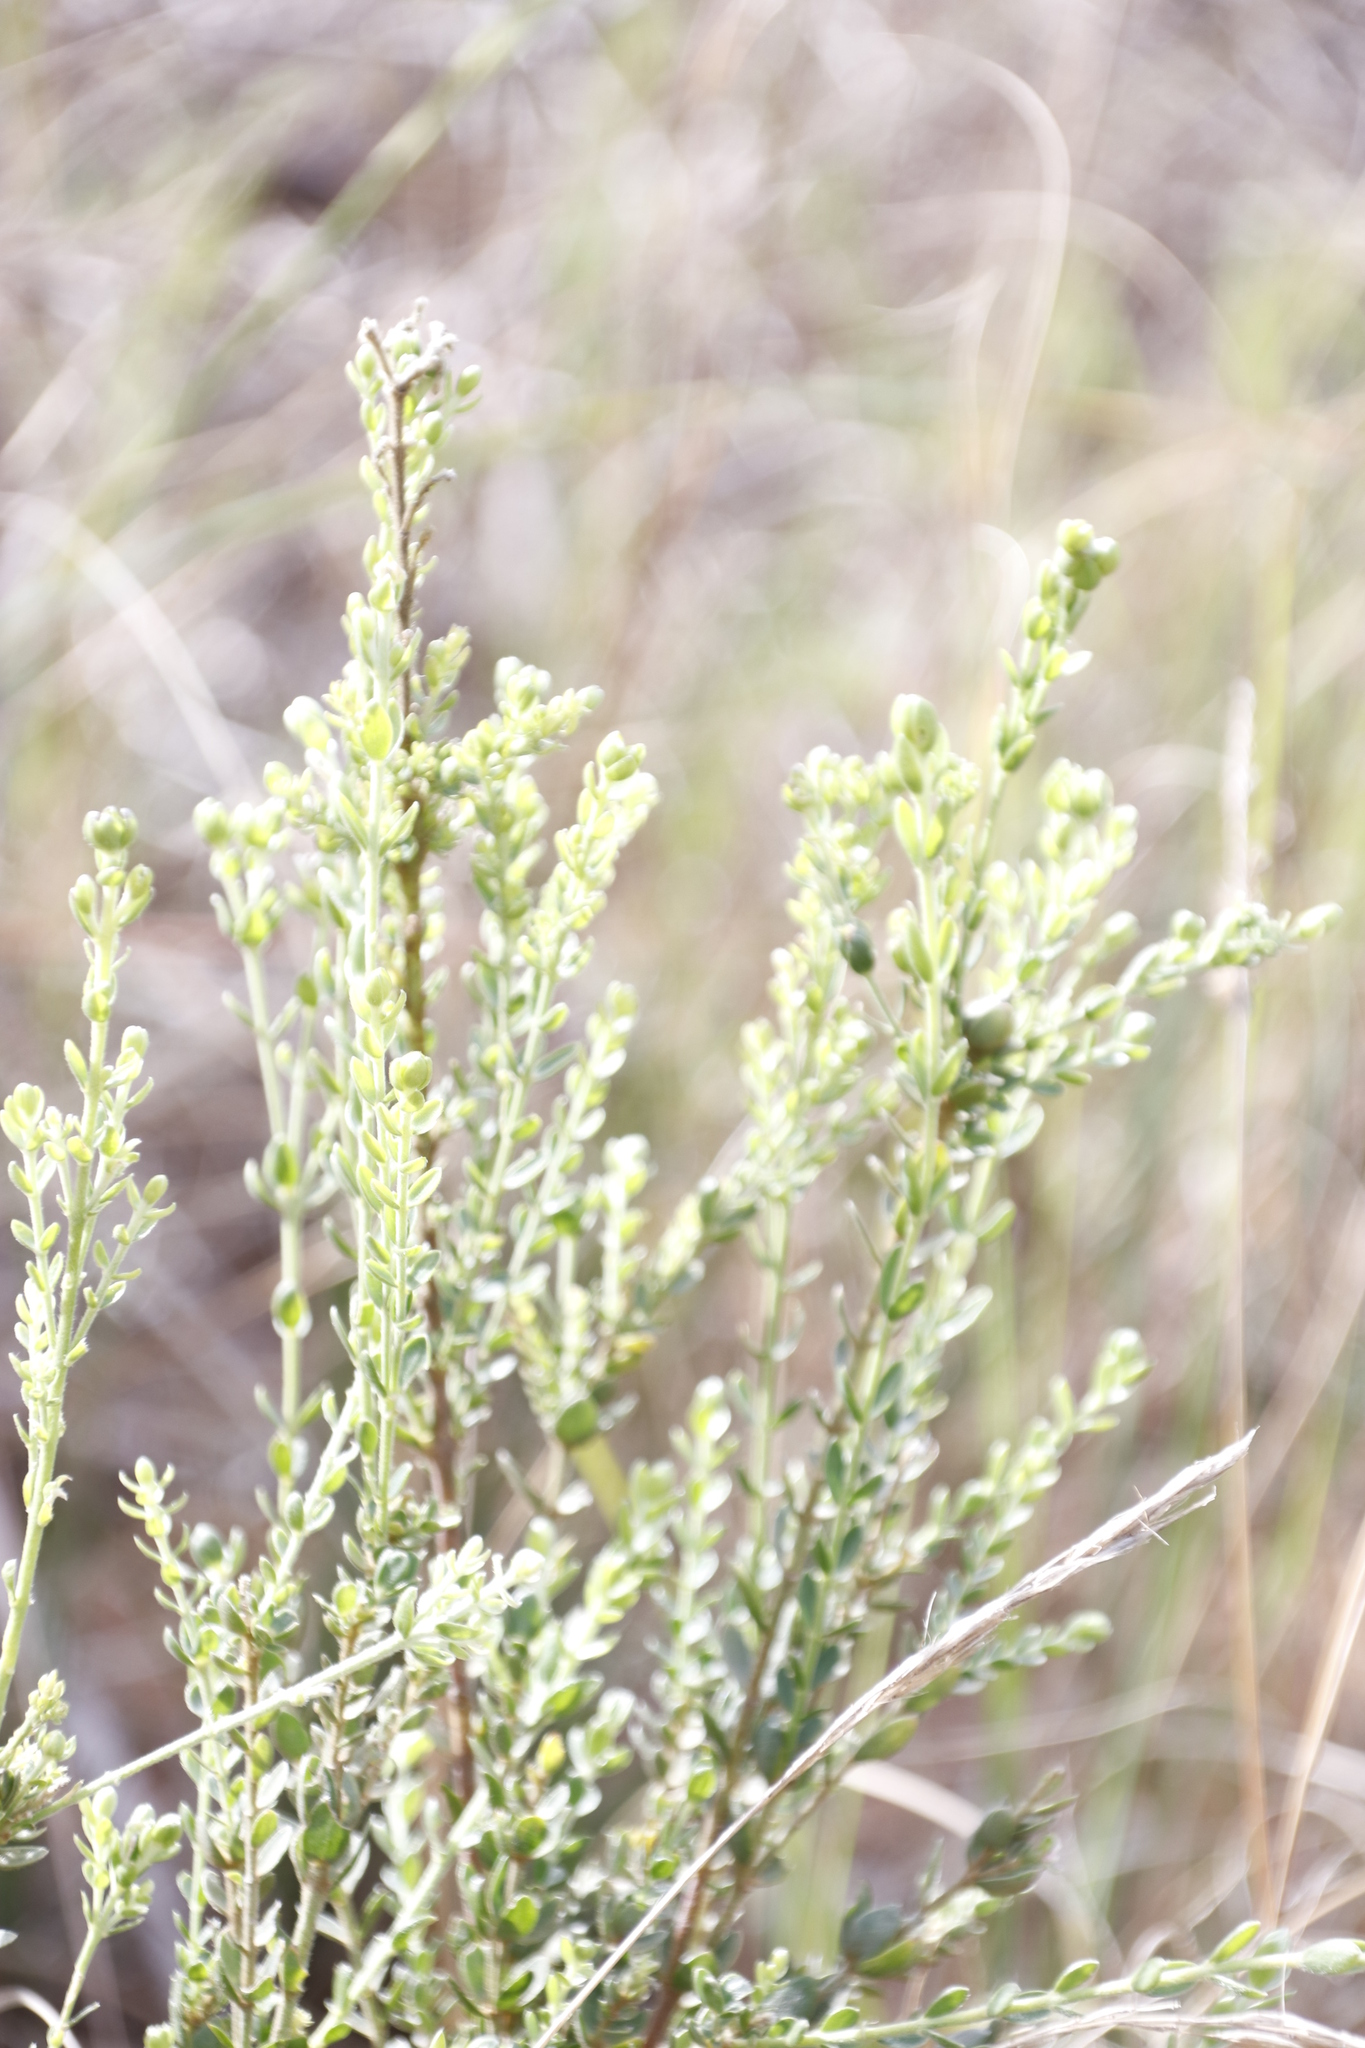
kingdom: Plantae
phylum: Tracheophyta
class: Magnoliopsida
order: Malvales
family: Thymelaeaceae
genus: Gnidia
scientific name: Gnidia sericea
